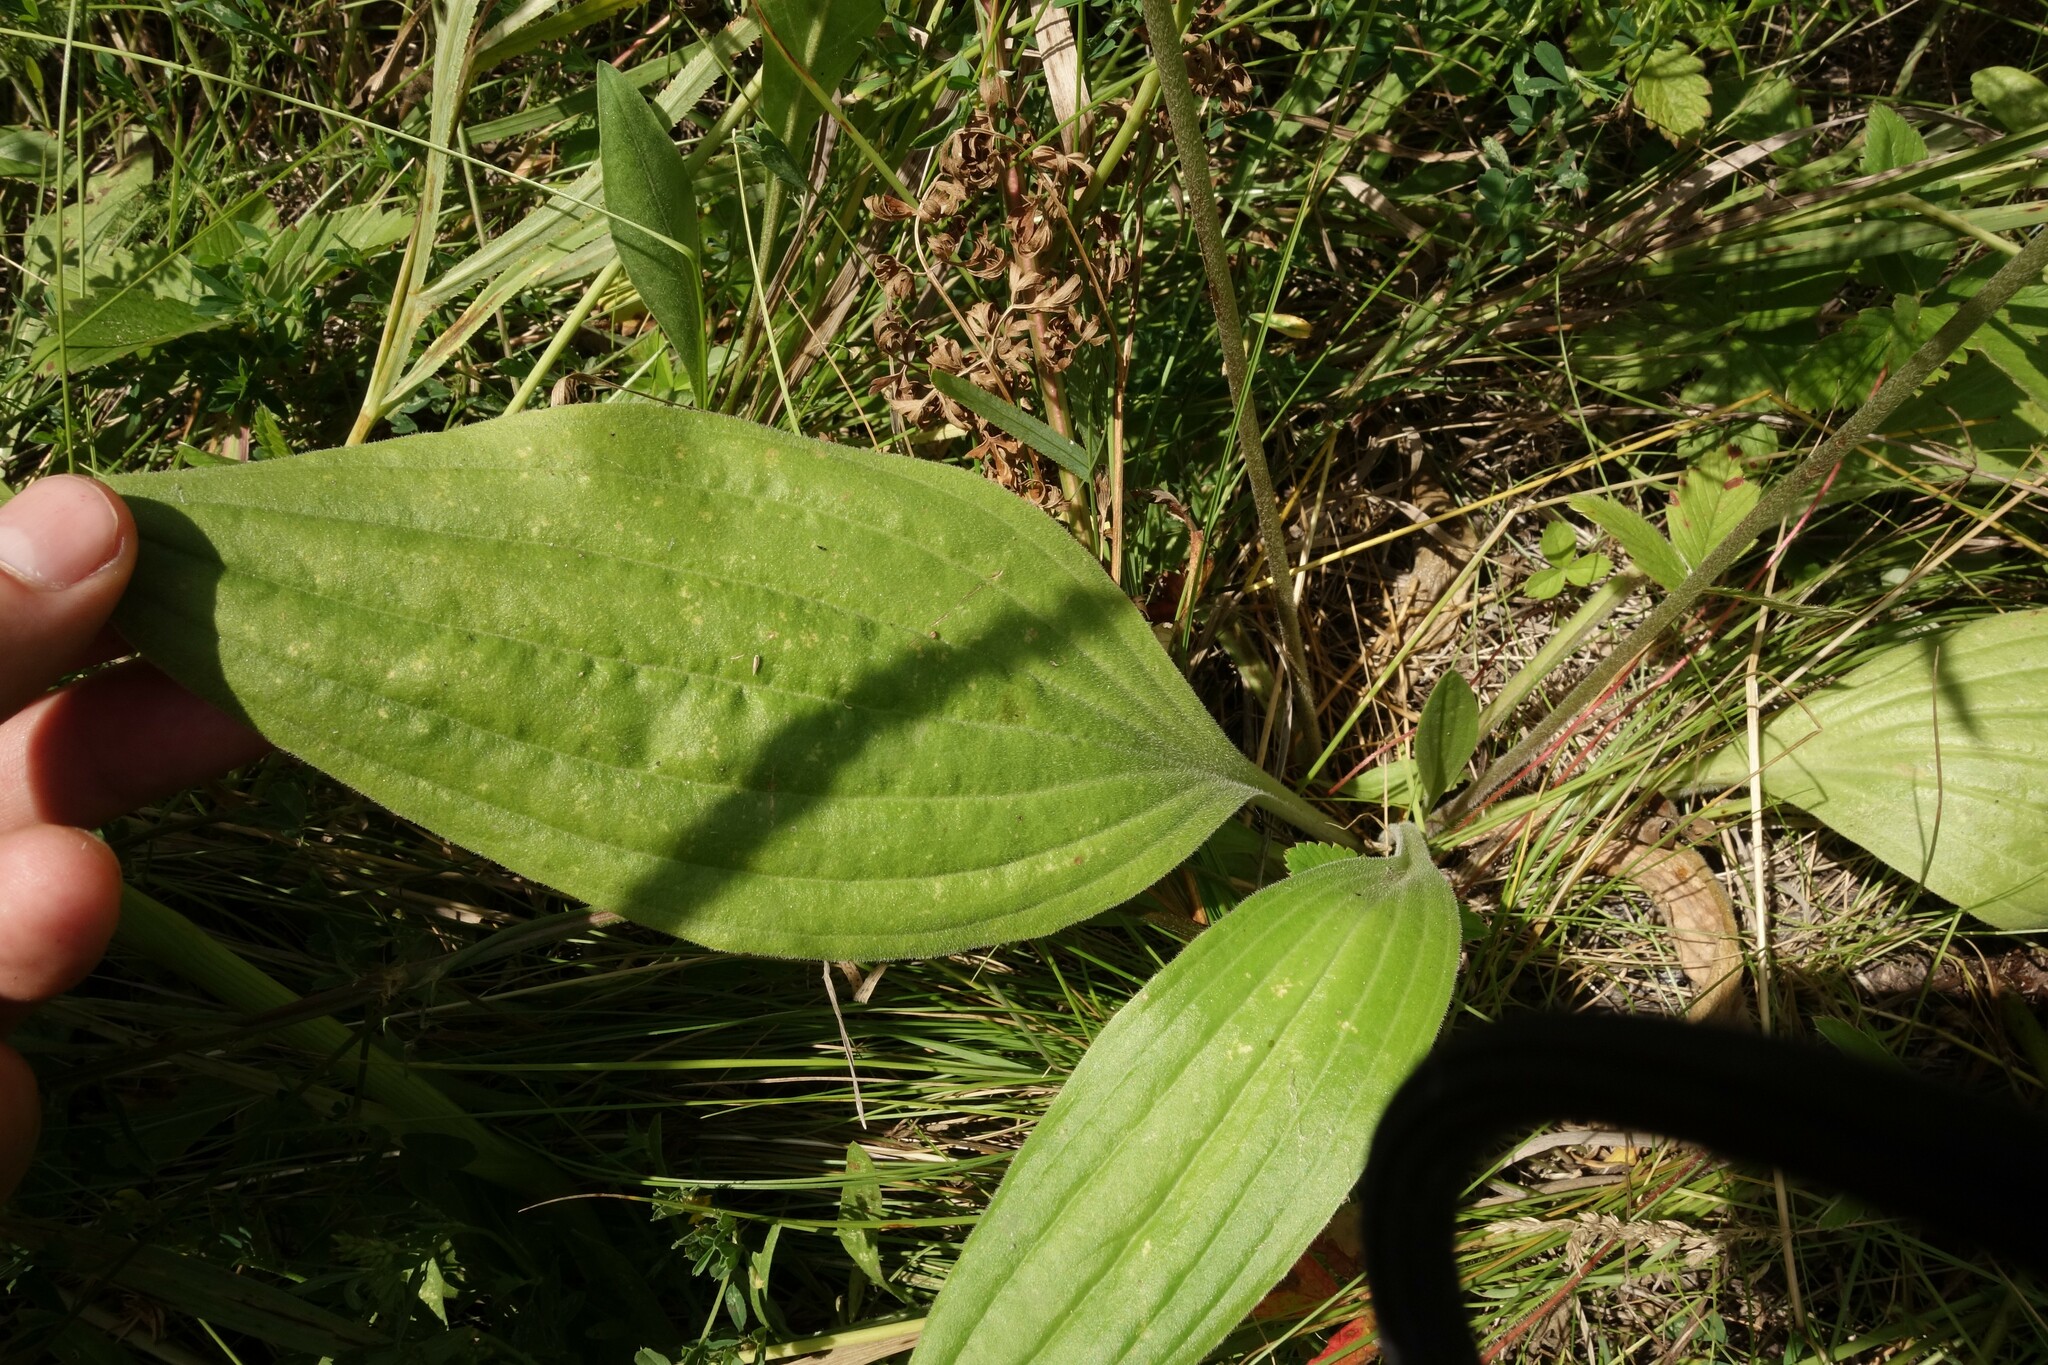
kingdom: Plantae
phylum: Tracheophyta
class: Magnoliopsida
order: Lamiales
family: Plantaginaceae
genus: Plantago
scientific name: Plantago urvillei
